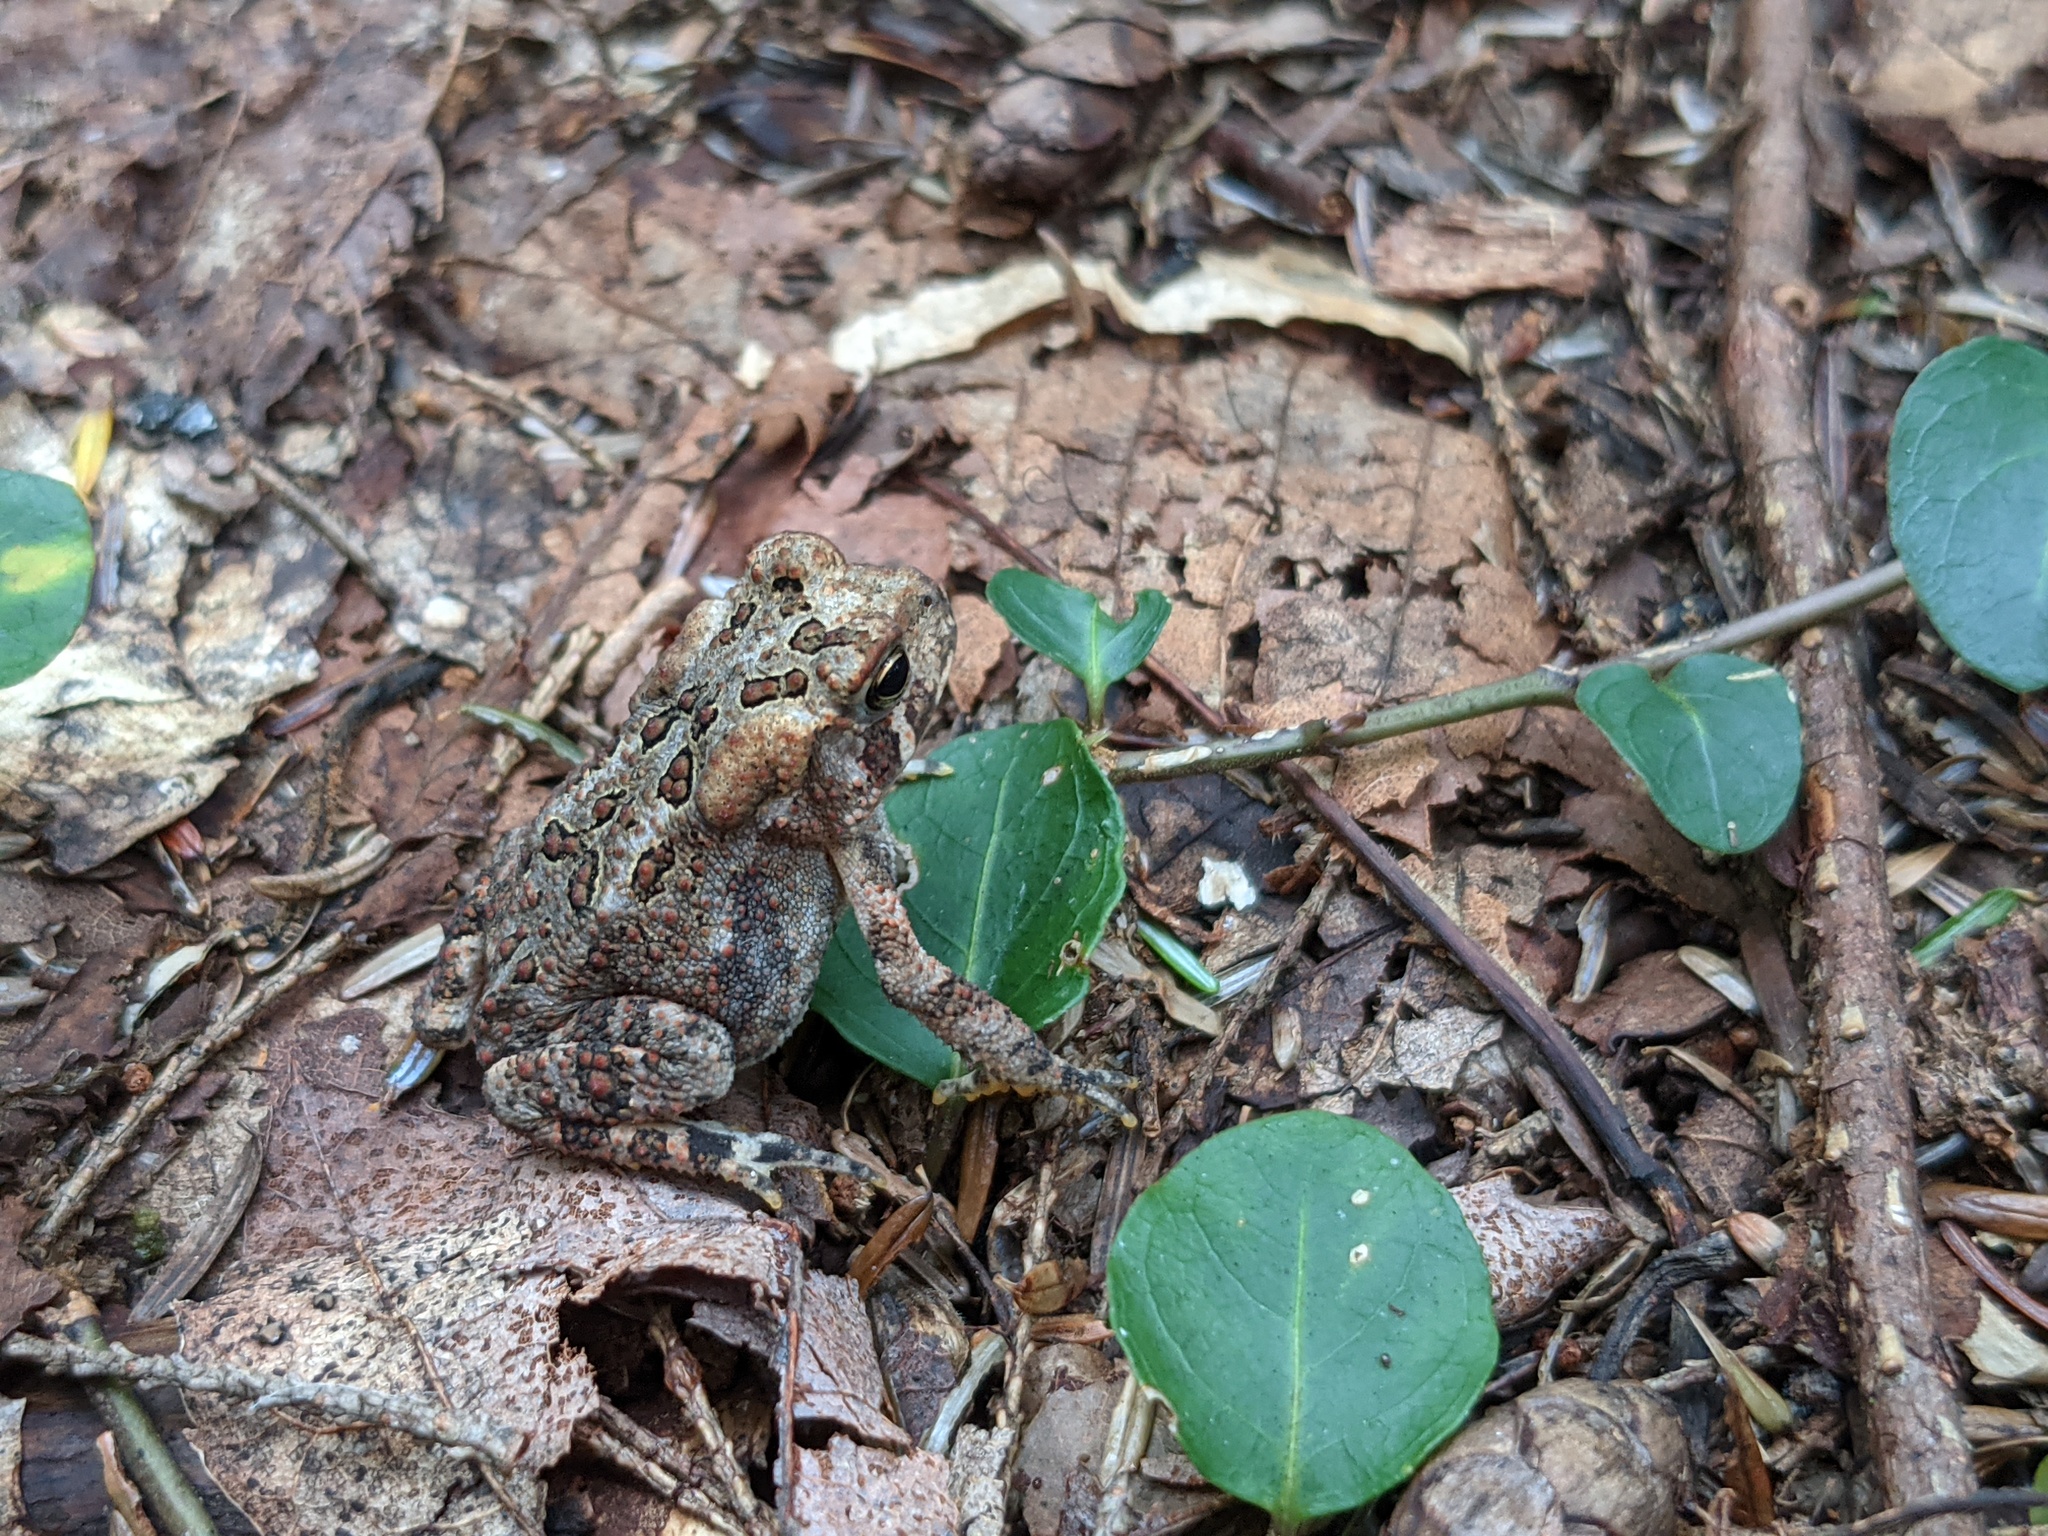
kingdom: Animalia
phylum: Chordata
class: Amphibia
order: Anura
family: Bufonidae
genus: Anaxyrus
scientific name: Anaxyrus americanus
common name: American toad
